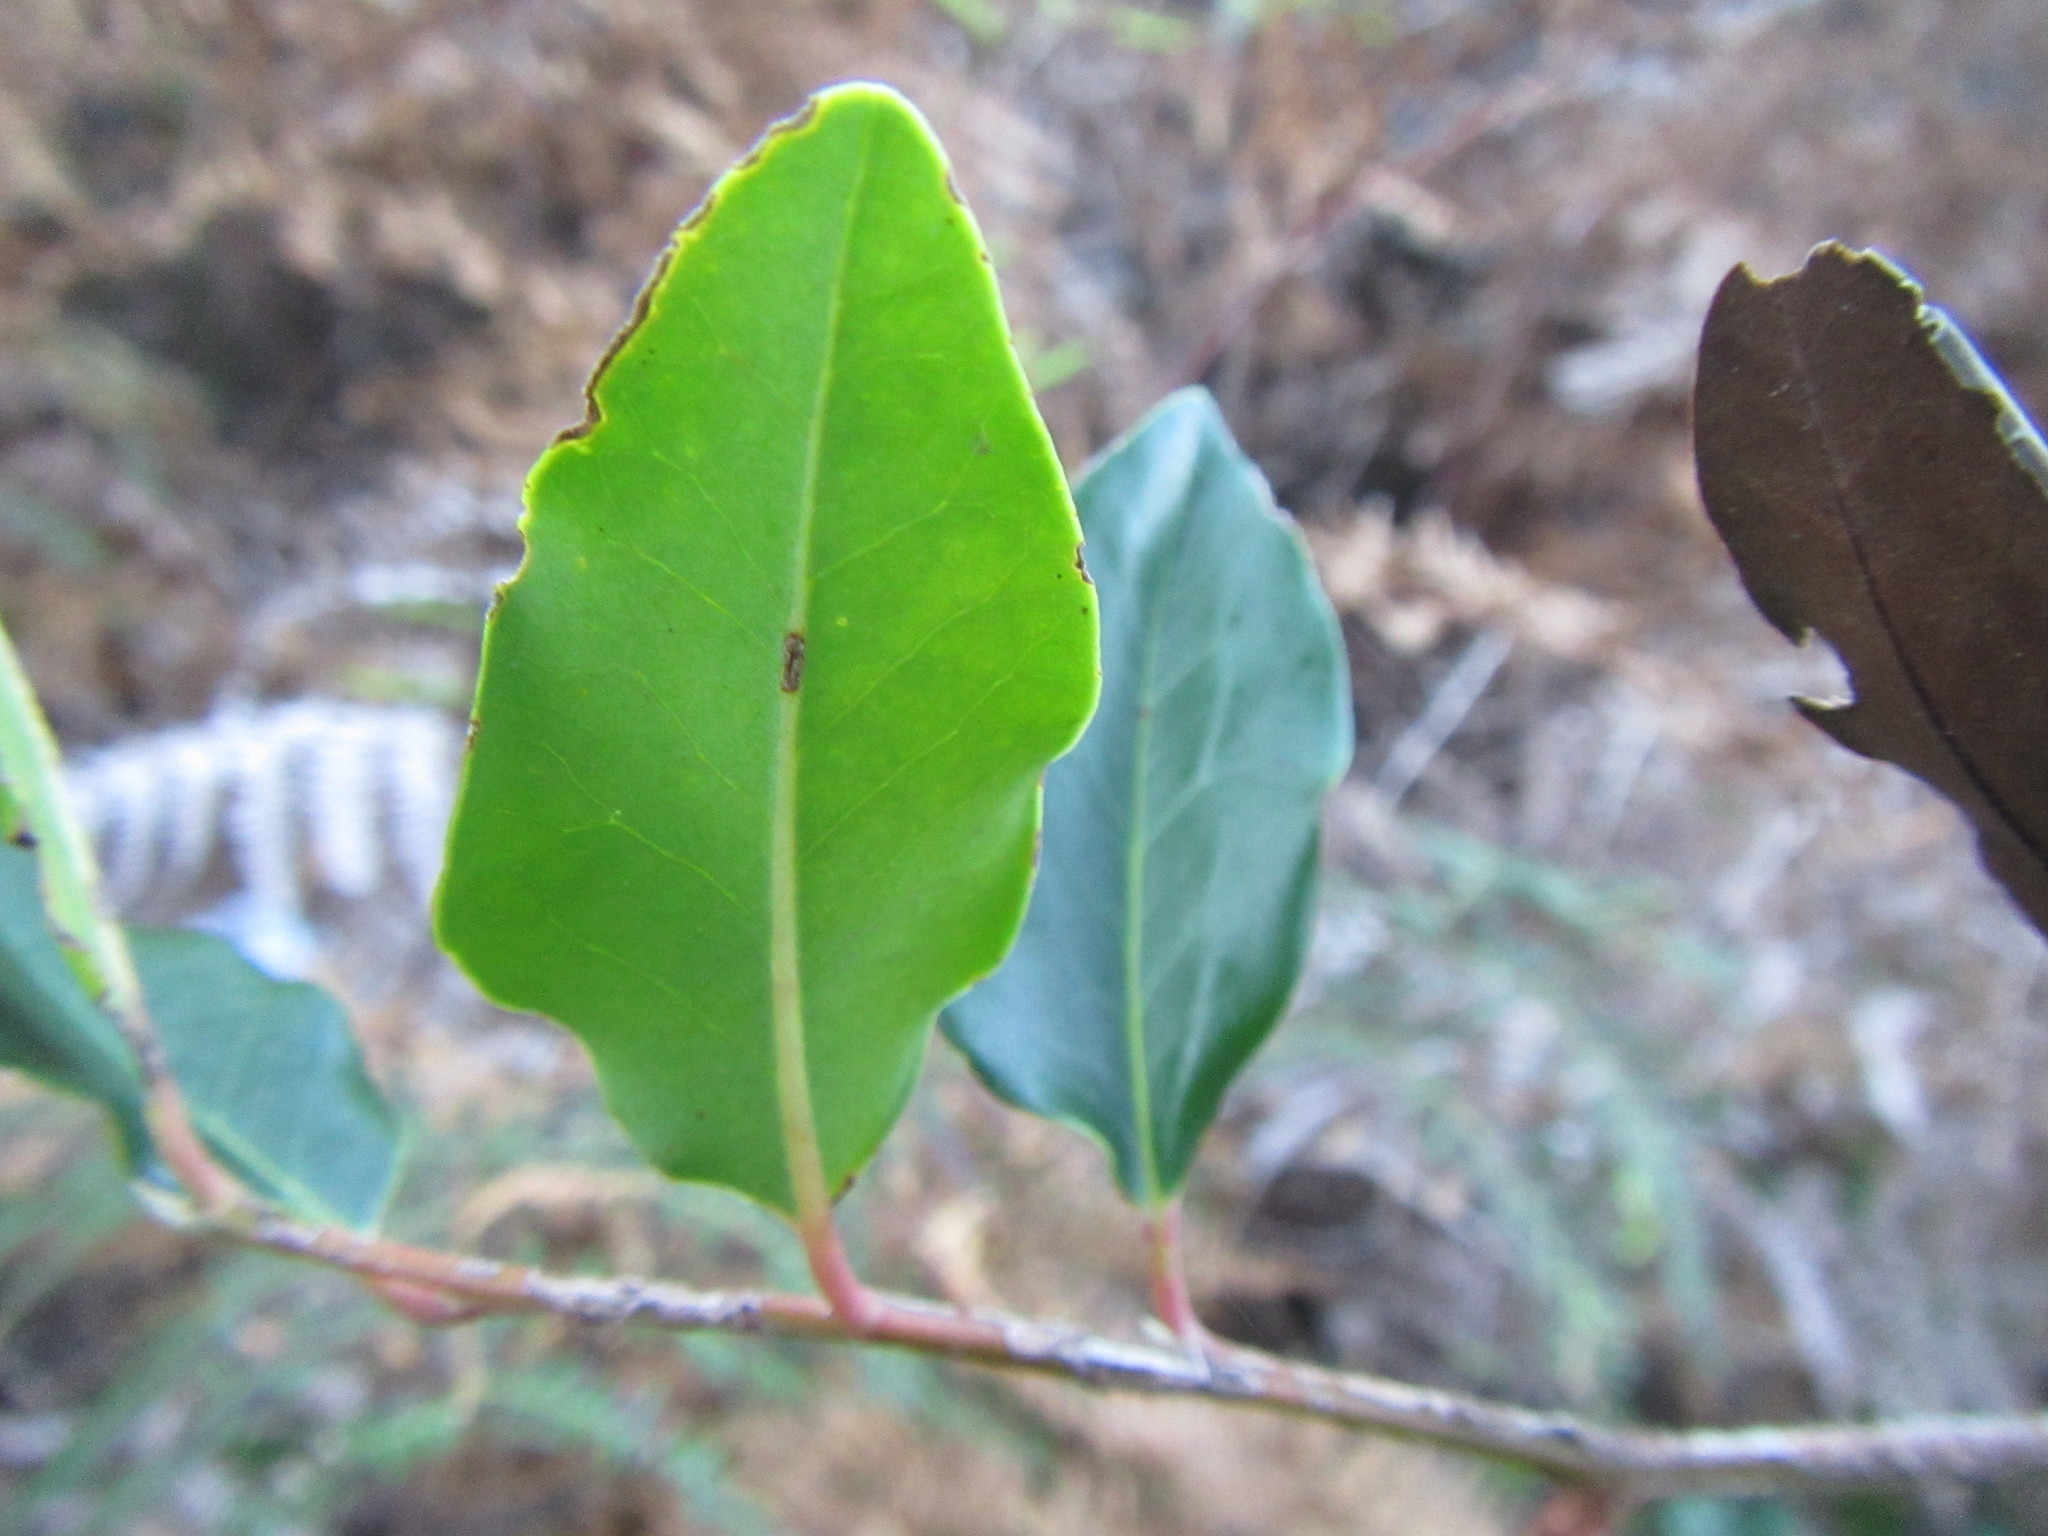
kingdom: Plantae
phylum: Tracheophyta
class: Magnoliopsida
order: Metteniusales
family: Metteniusaceae
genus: Apodytes
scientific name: Apodytes dimidiata
